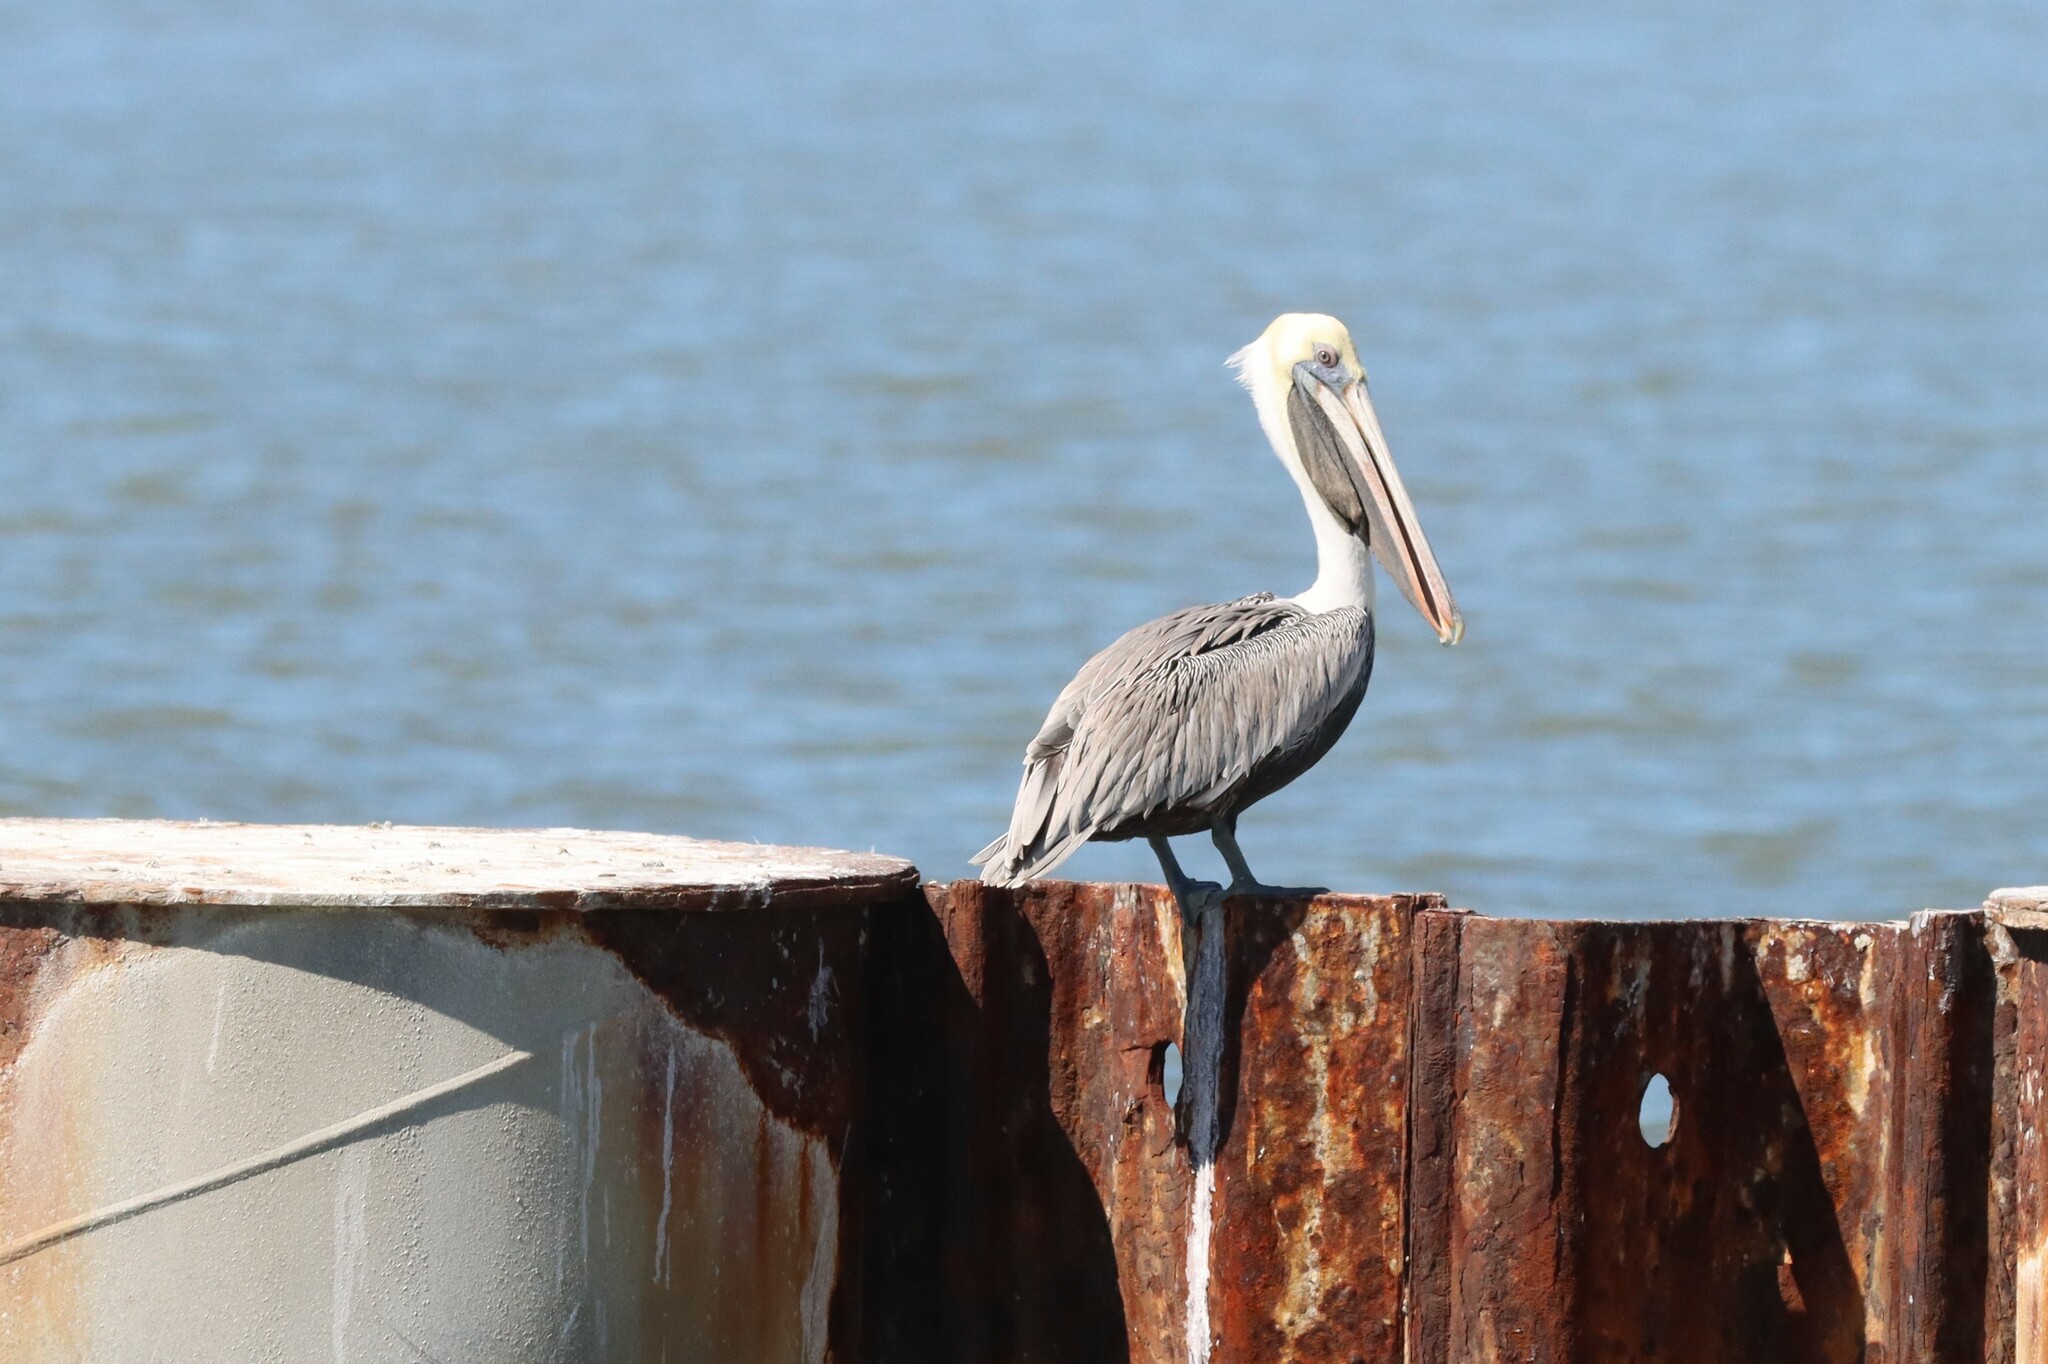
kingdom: Animalia
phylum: Chordata
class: Aves
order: Pelecaniformes
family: Pelecanidae
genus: Pelecanus
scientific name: Pelecanus occidentalis
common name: Brown pelican
